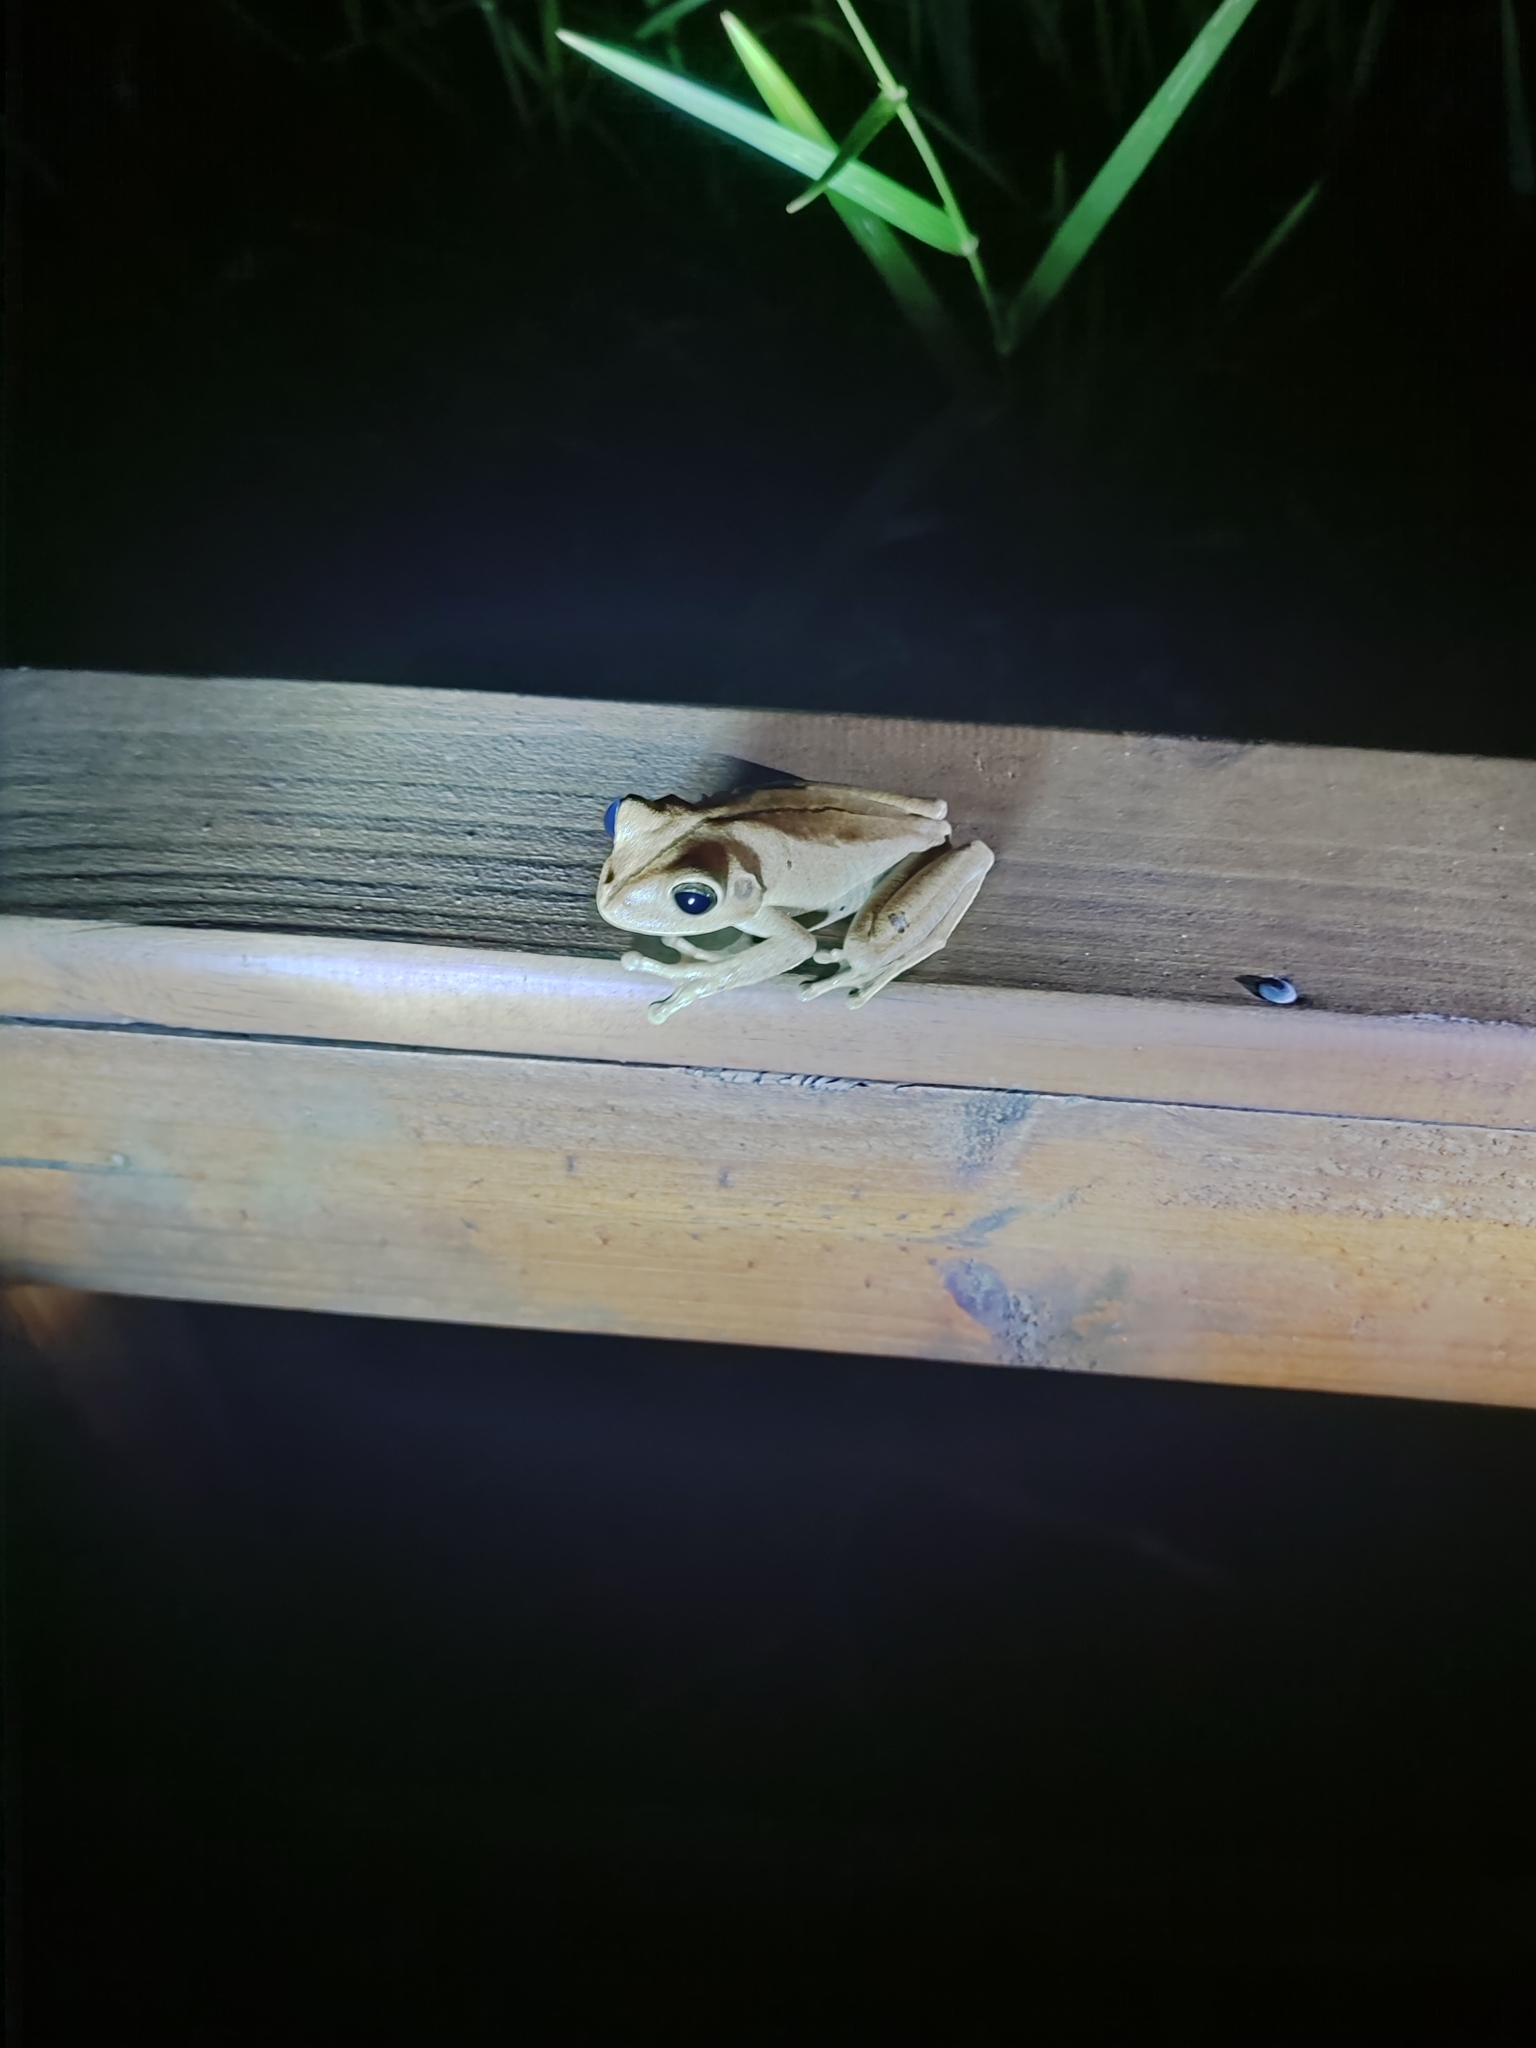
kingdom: Animalia
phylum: Chordata
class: Amphibia
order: Anura
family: Hylidae
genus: Boana
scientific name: Boana faber
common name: Blacksmith tree frog
